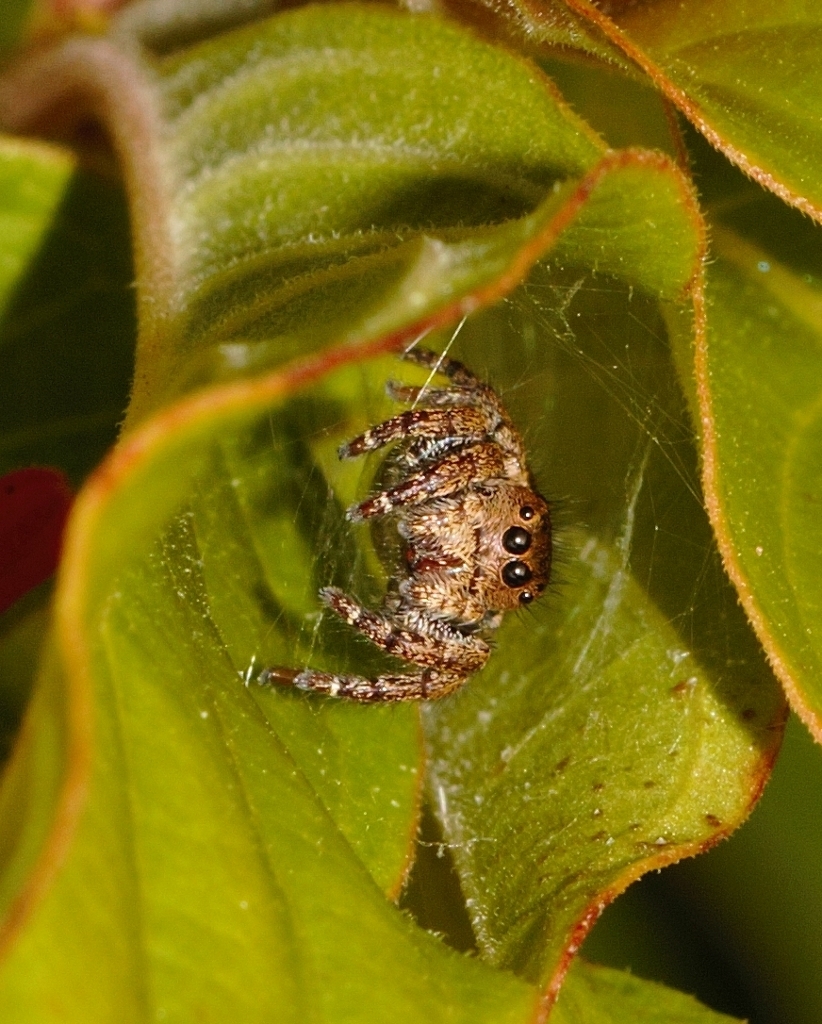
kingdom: Animalia
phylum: Arthropoda
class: Arachnida
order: Araneae
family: Salticidae
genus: Baryphas
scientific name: Baryphas ahenus
